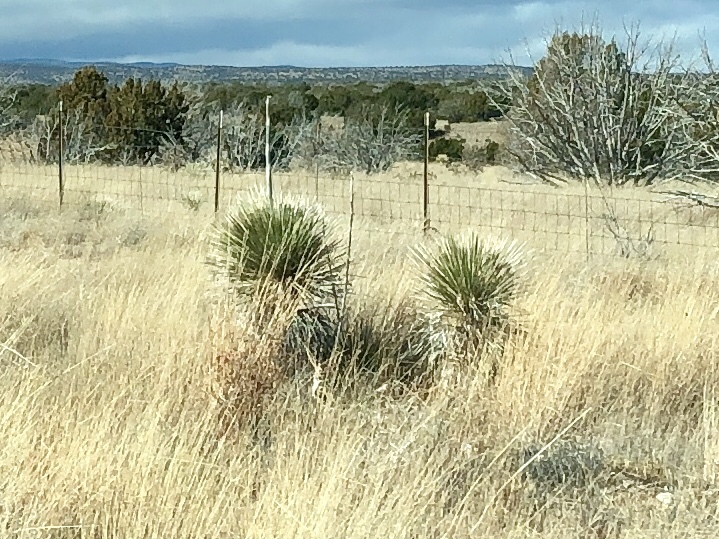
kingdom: Plantae
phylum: Tracheophyta
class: Liliopsida
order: Asparagales
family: Asparagaceae
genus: Yucca
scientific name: Yucca elata
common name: Palmella
